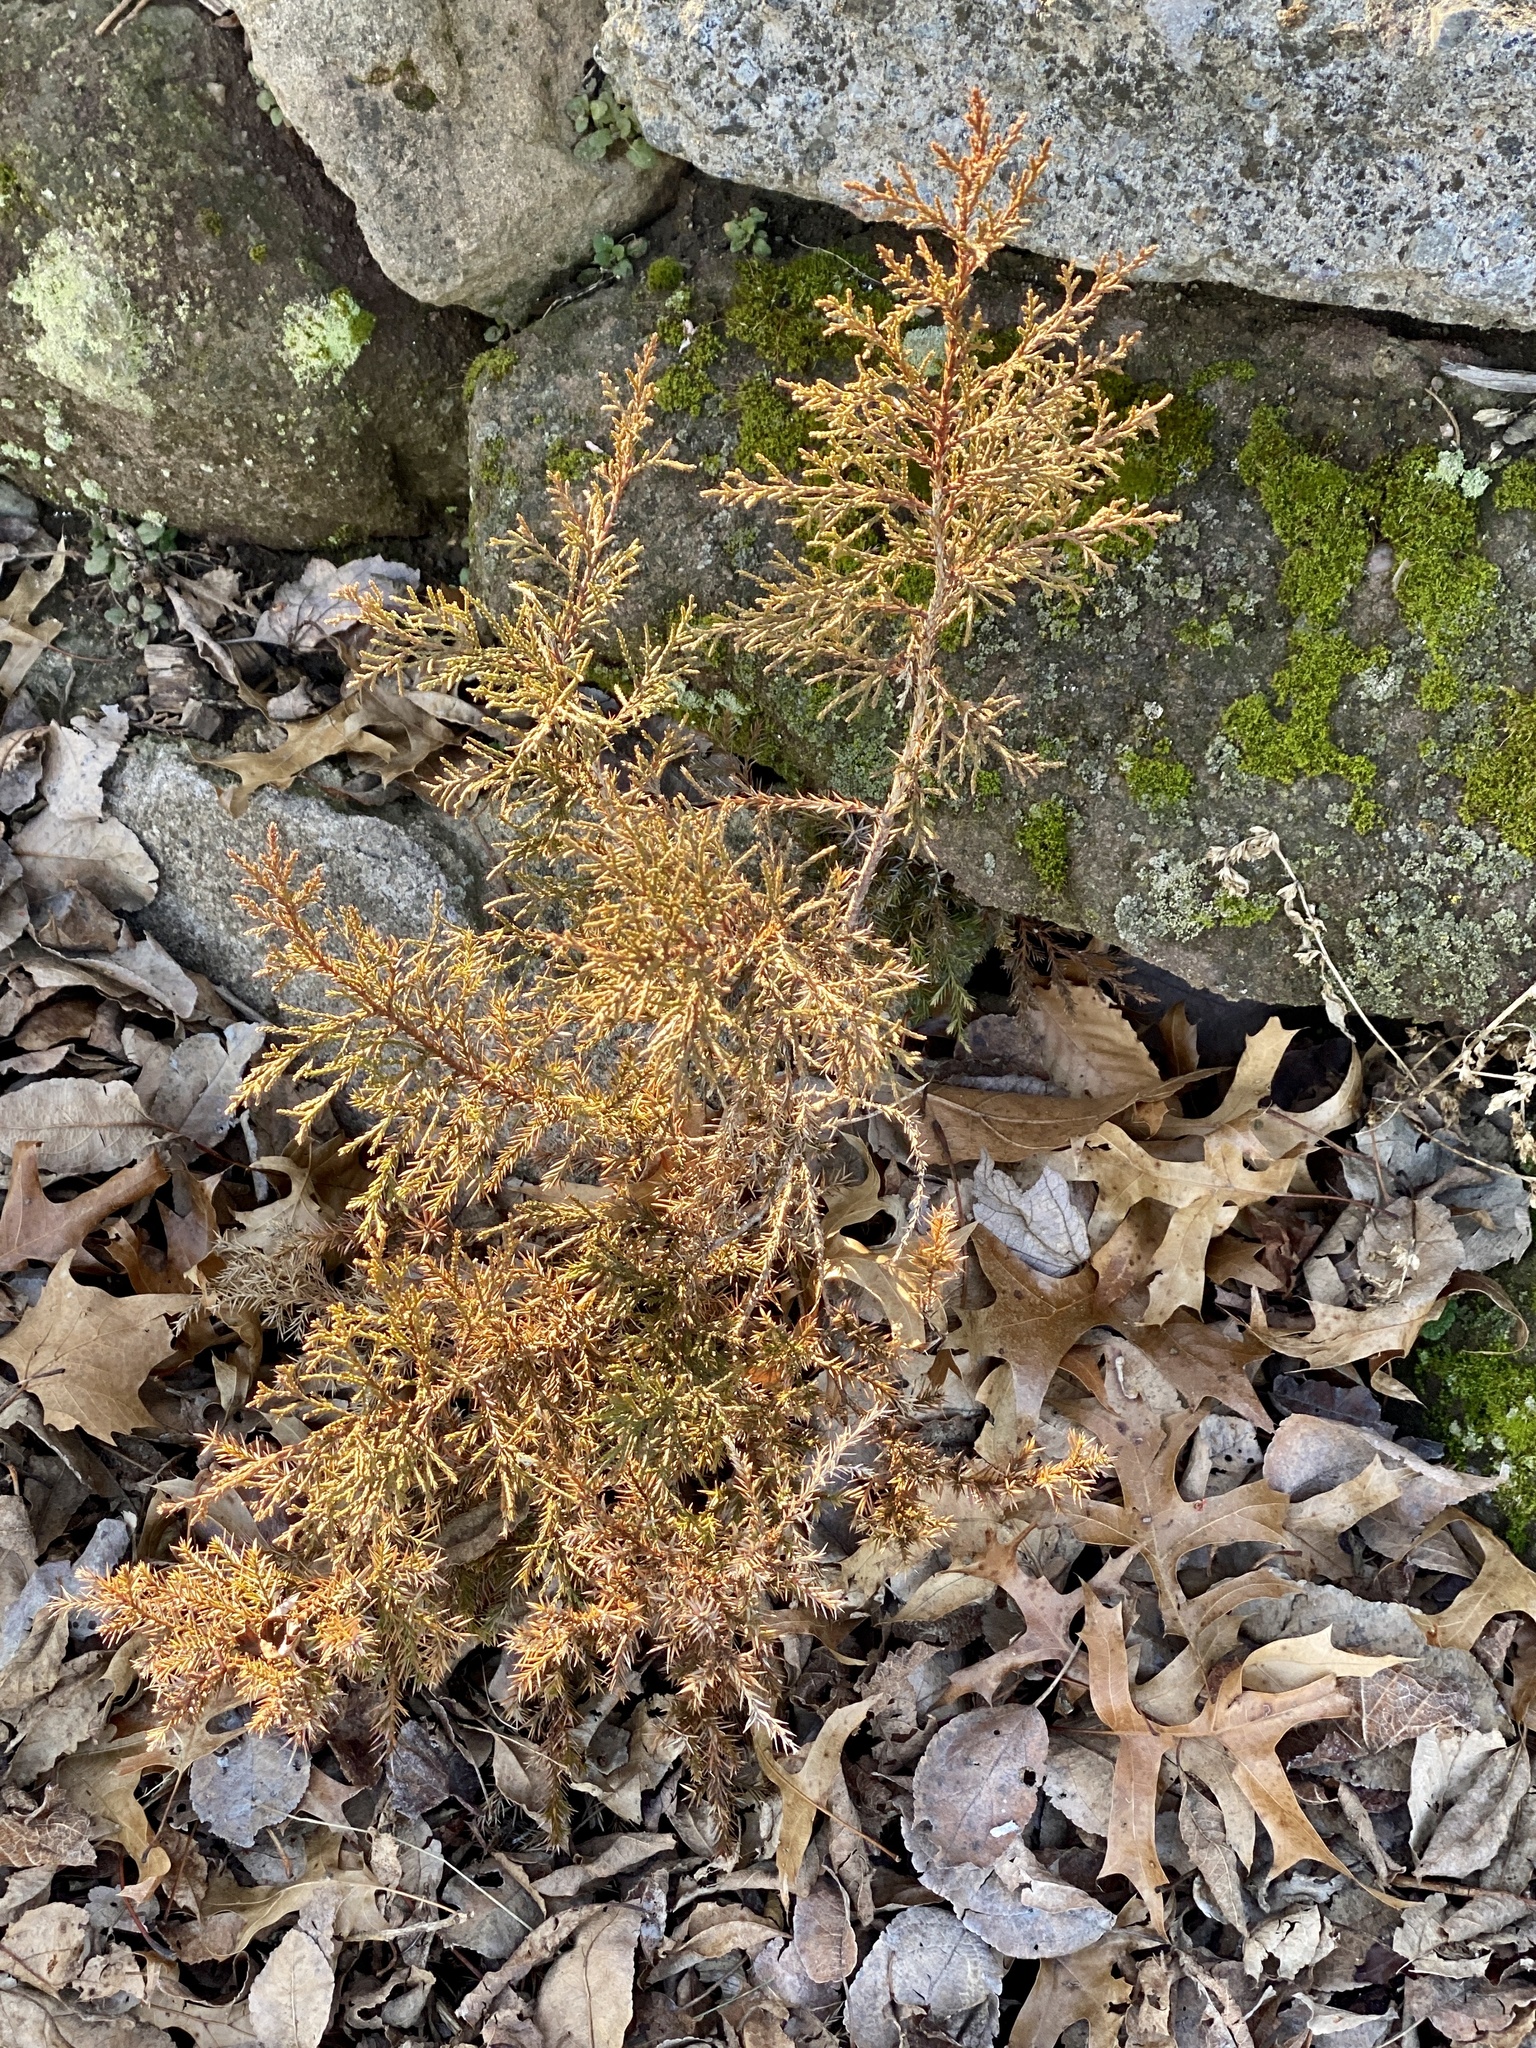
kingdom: Plantae
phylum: Tracheophyta
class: Pinopsida
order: Pinales
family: Cupressaceae
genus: Juniperus
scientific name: Juniperus virginiana
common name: Red juniper
